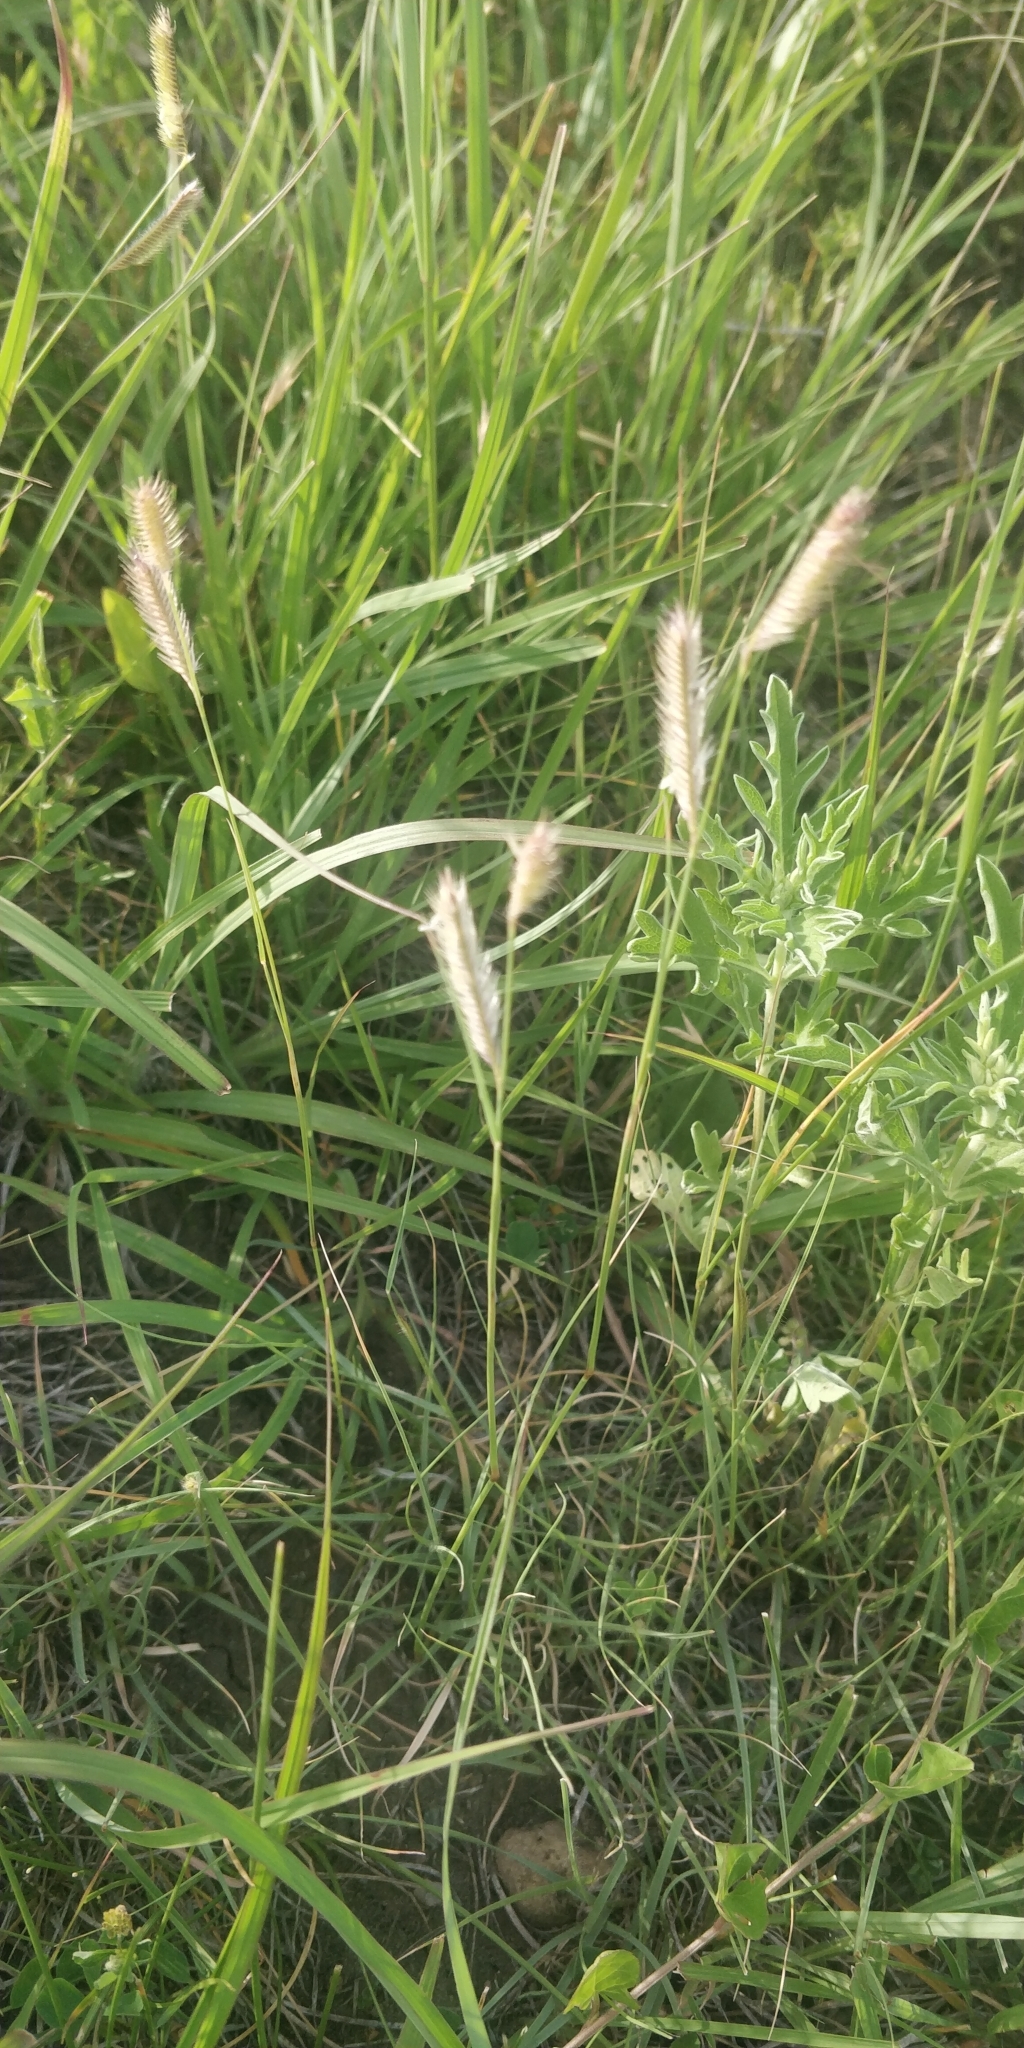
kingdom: Plantae
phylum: Tracheophyta
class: Liliopsida
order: Poales
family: Poaceae
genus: Bouteloua
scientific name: Bouteloua gracilis
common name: Blue grama
